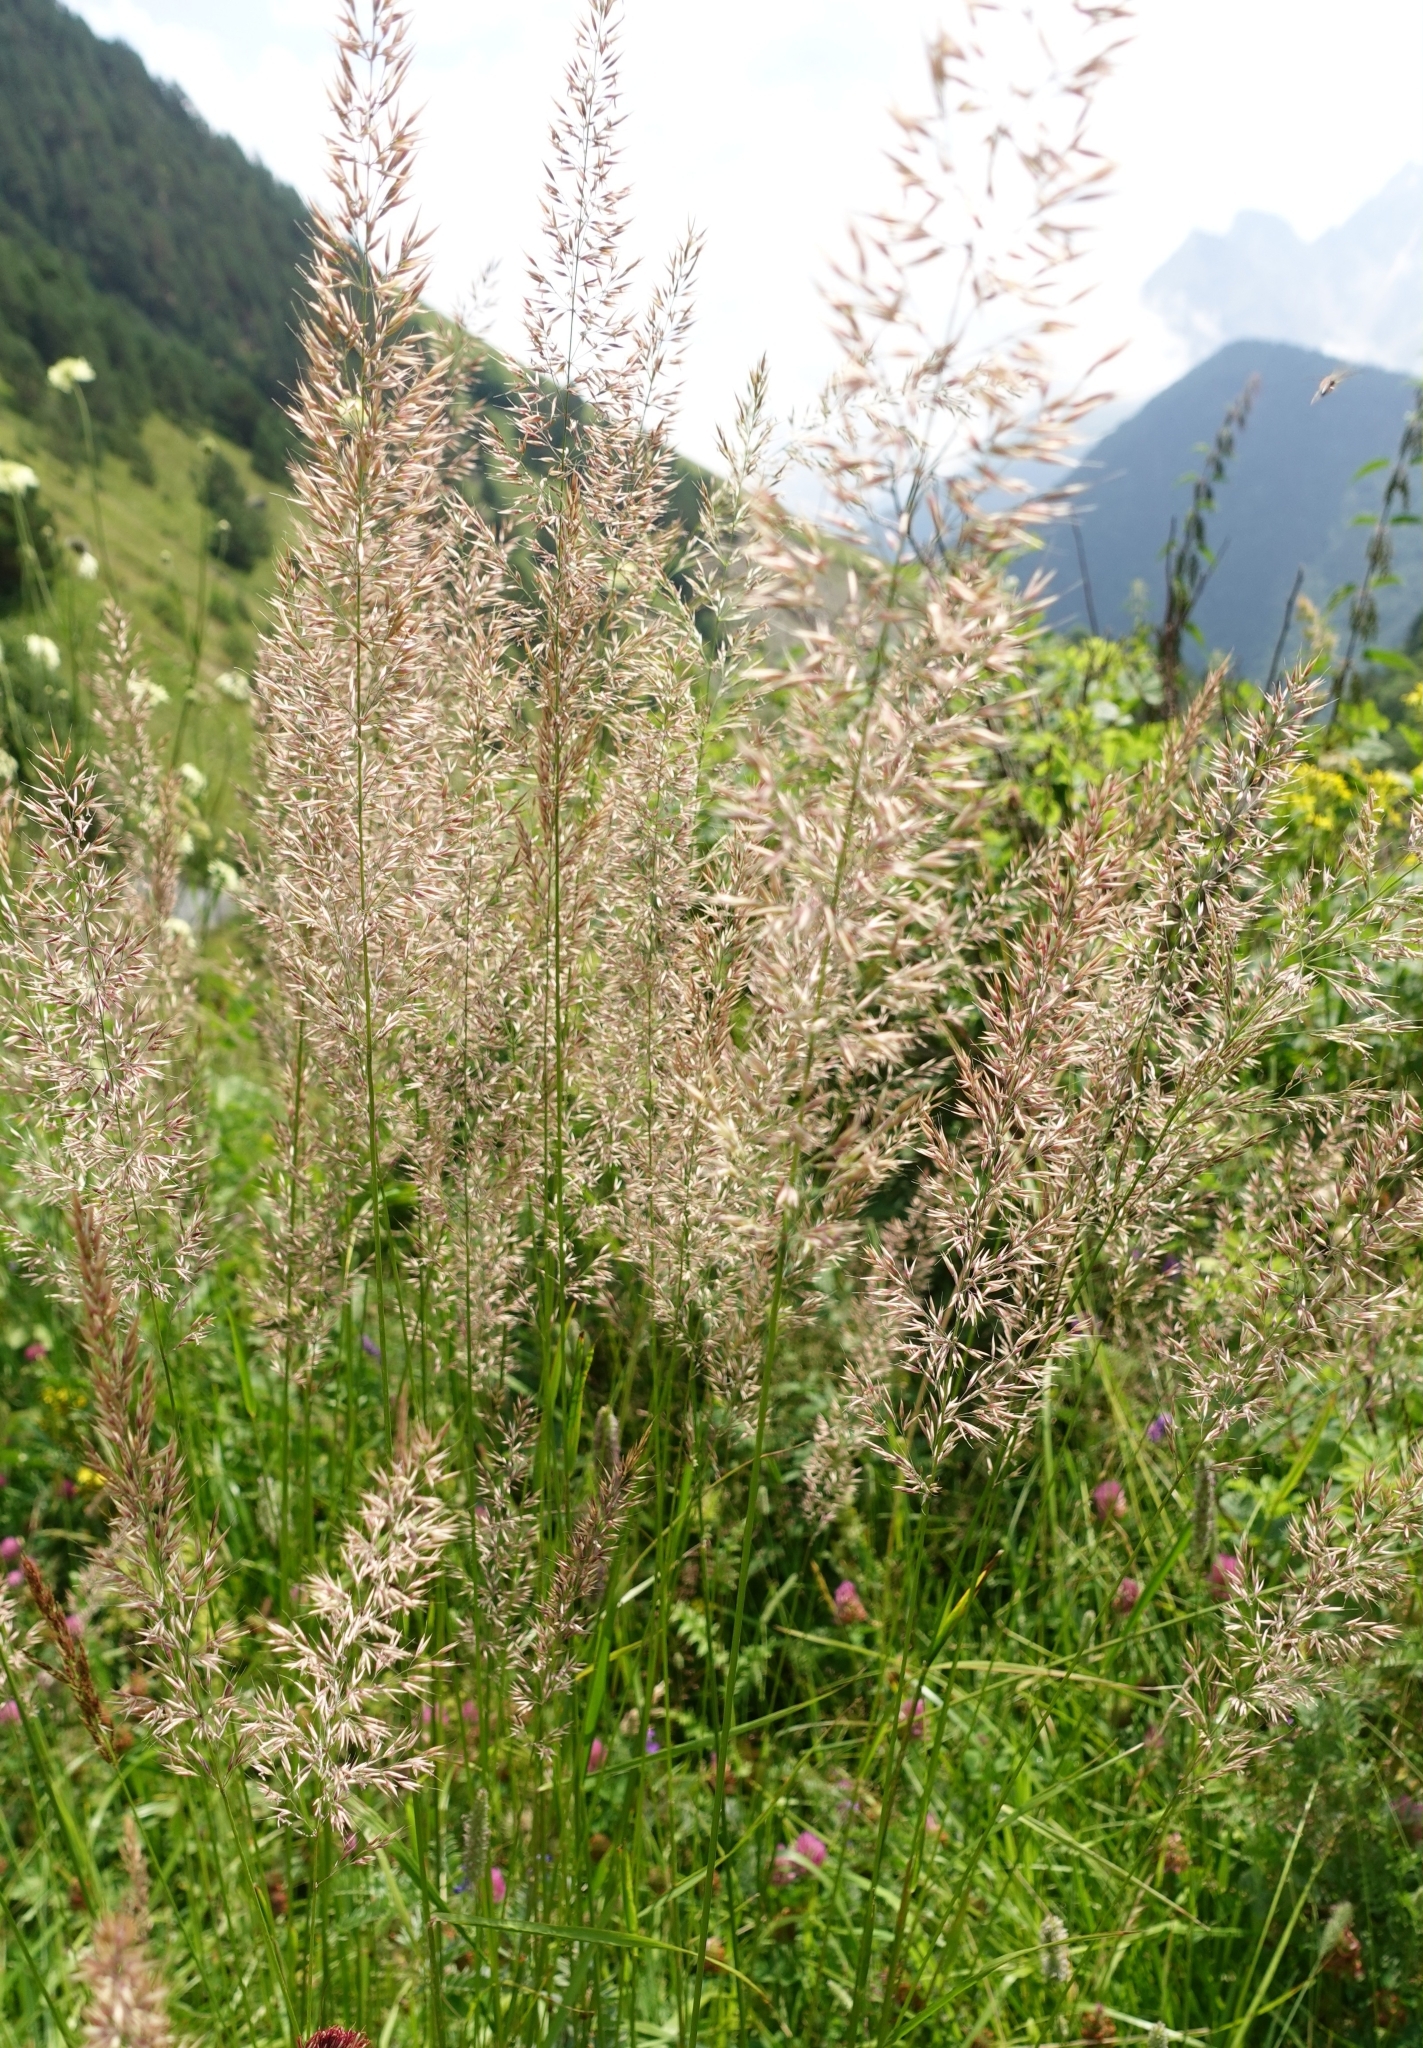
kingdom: Plantae
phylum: Tracheophyta
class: Liliopsida
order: Poales
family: Poaceae
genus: Calamagrostis
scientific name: Calamagrostis arundinacea
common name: Metskastik
